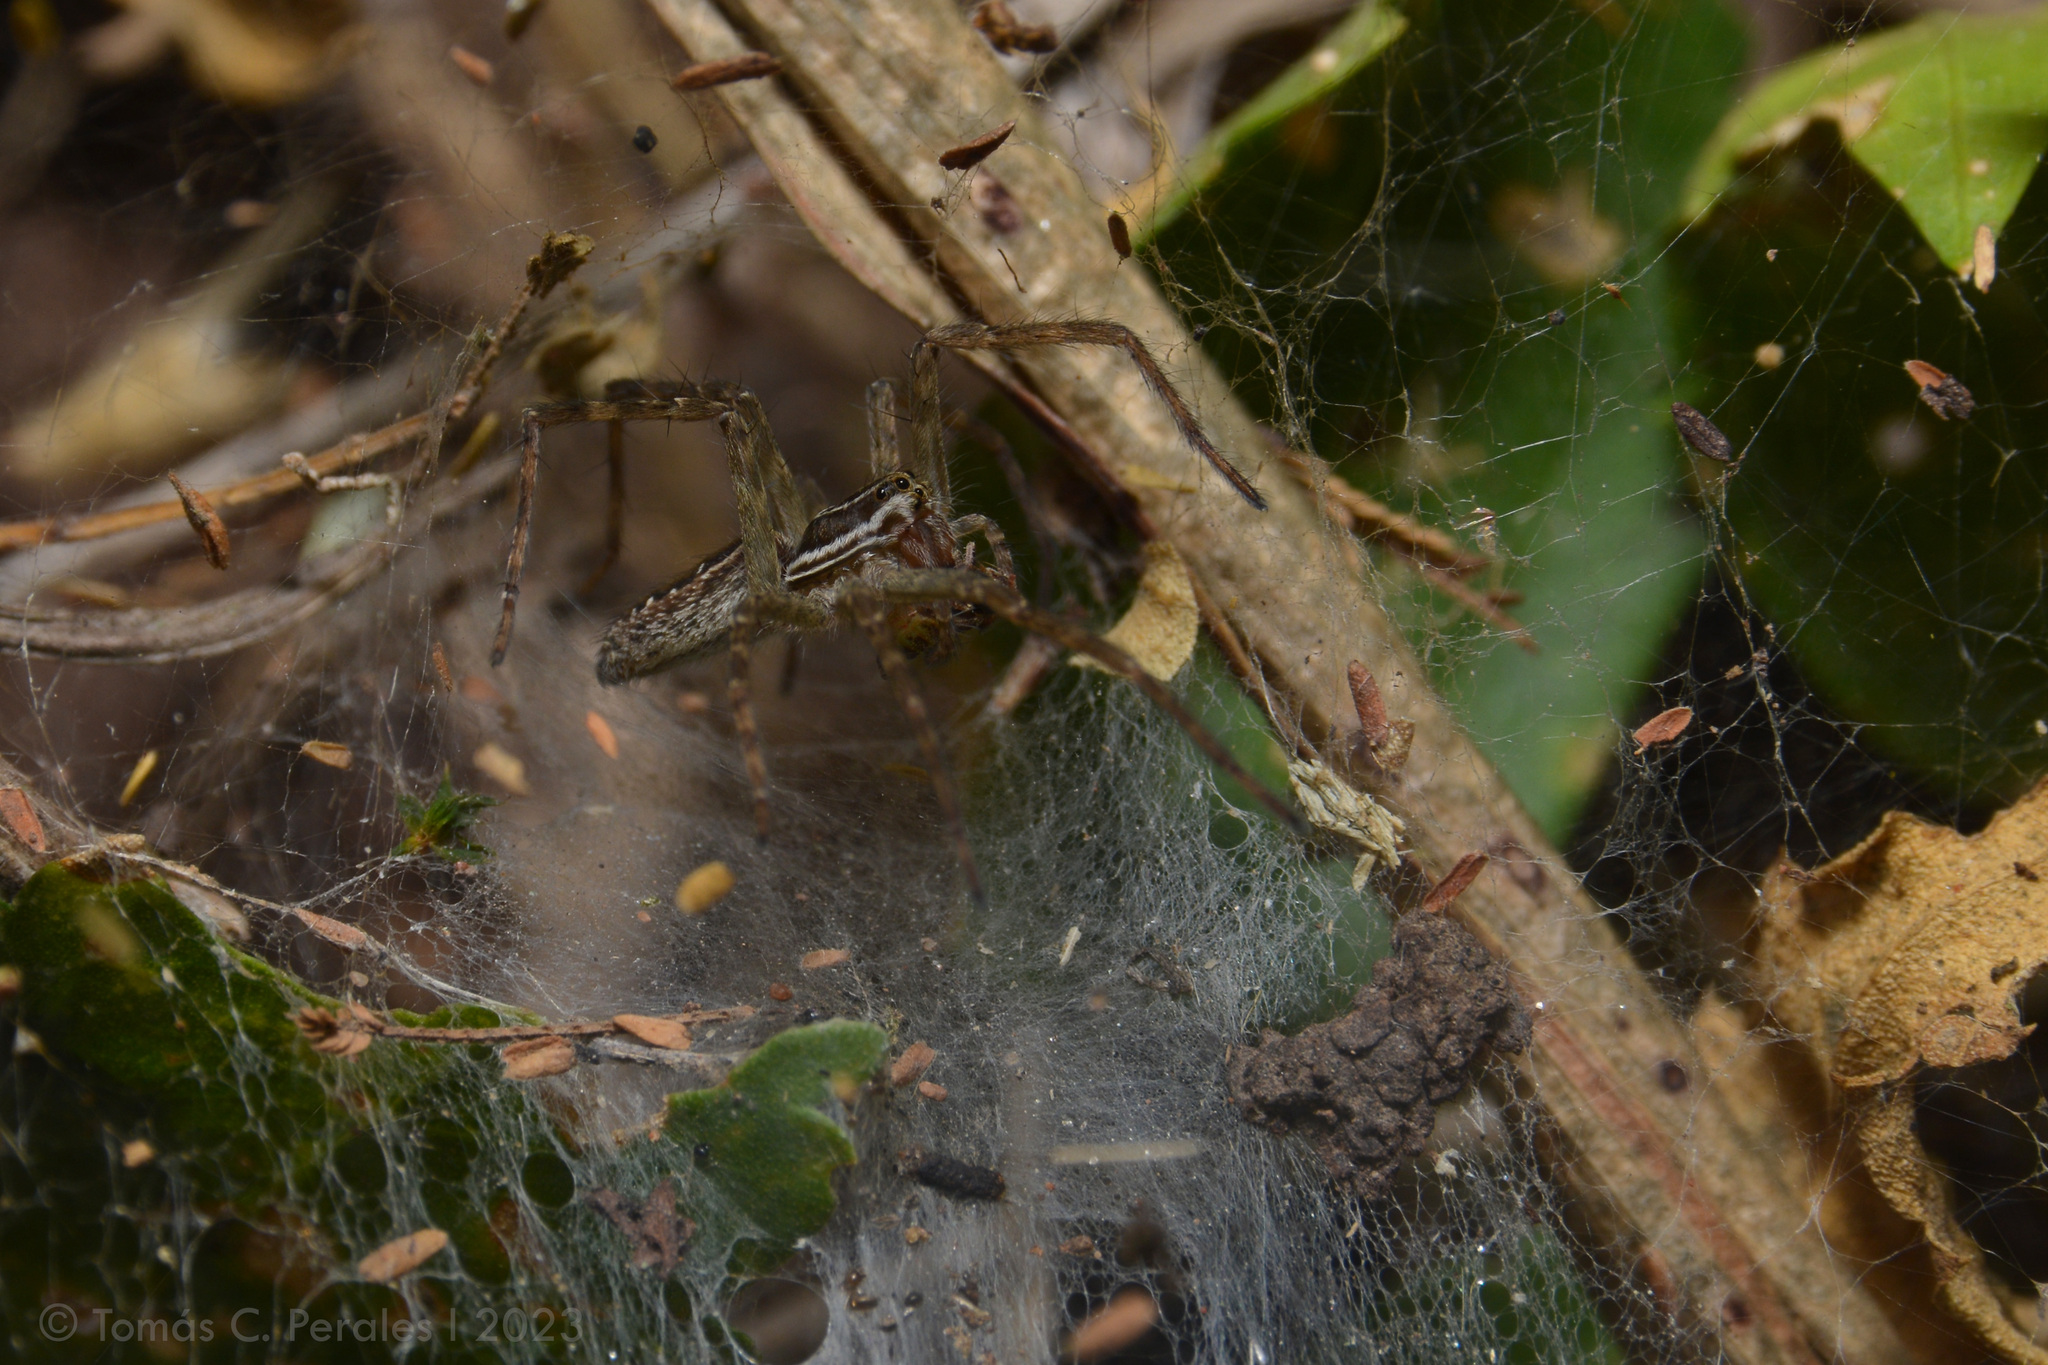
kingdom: Animalia
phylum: Arthropoda
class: Arachnida
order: Araneae
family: Lycosidae
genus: Aglaoctenus
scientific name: Aglaoctenus lagotis
